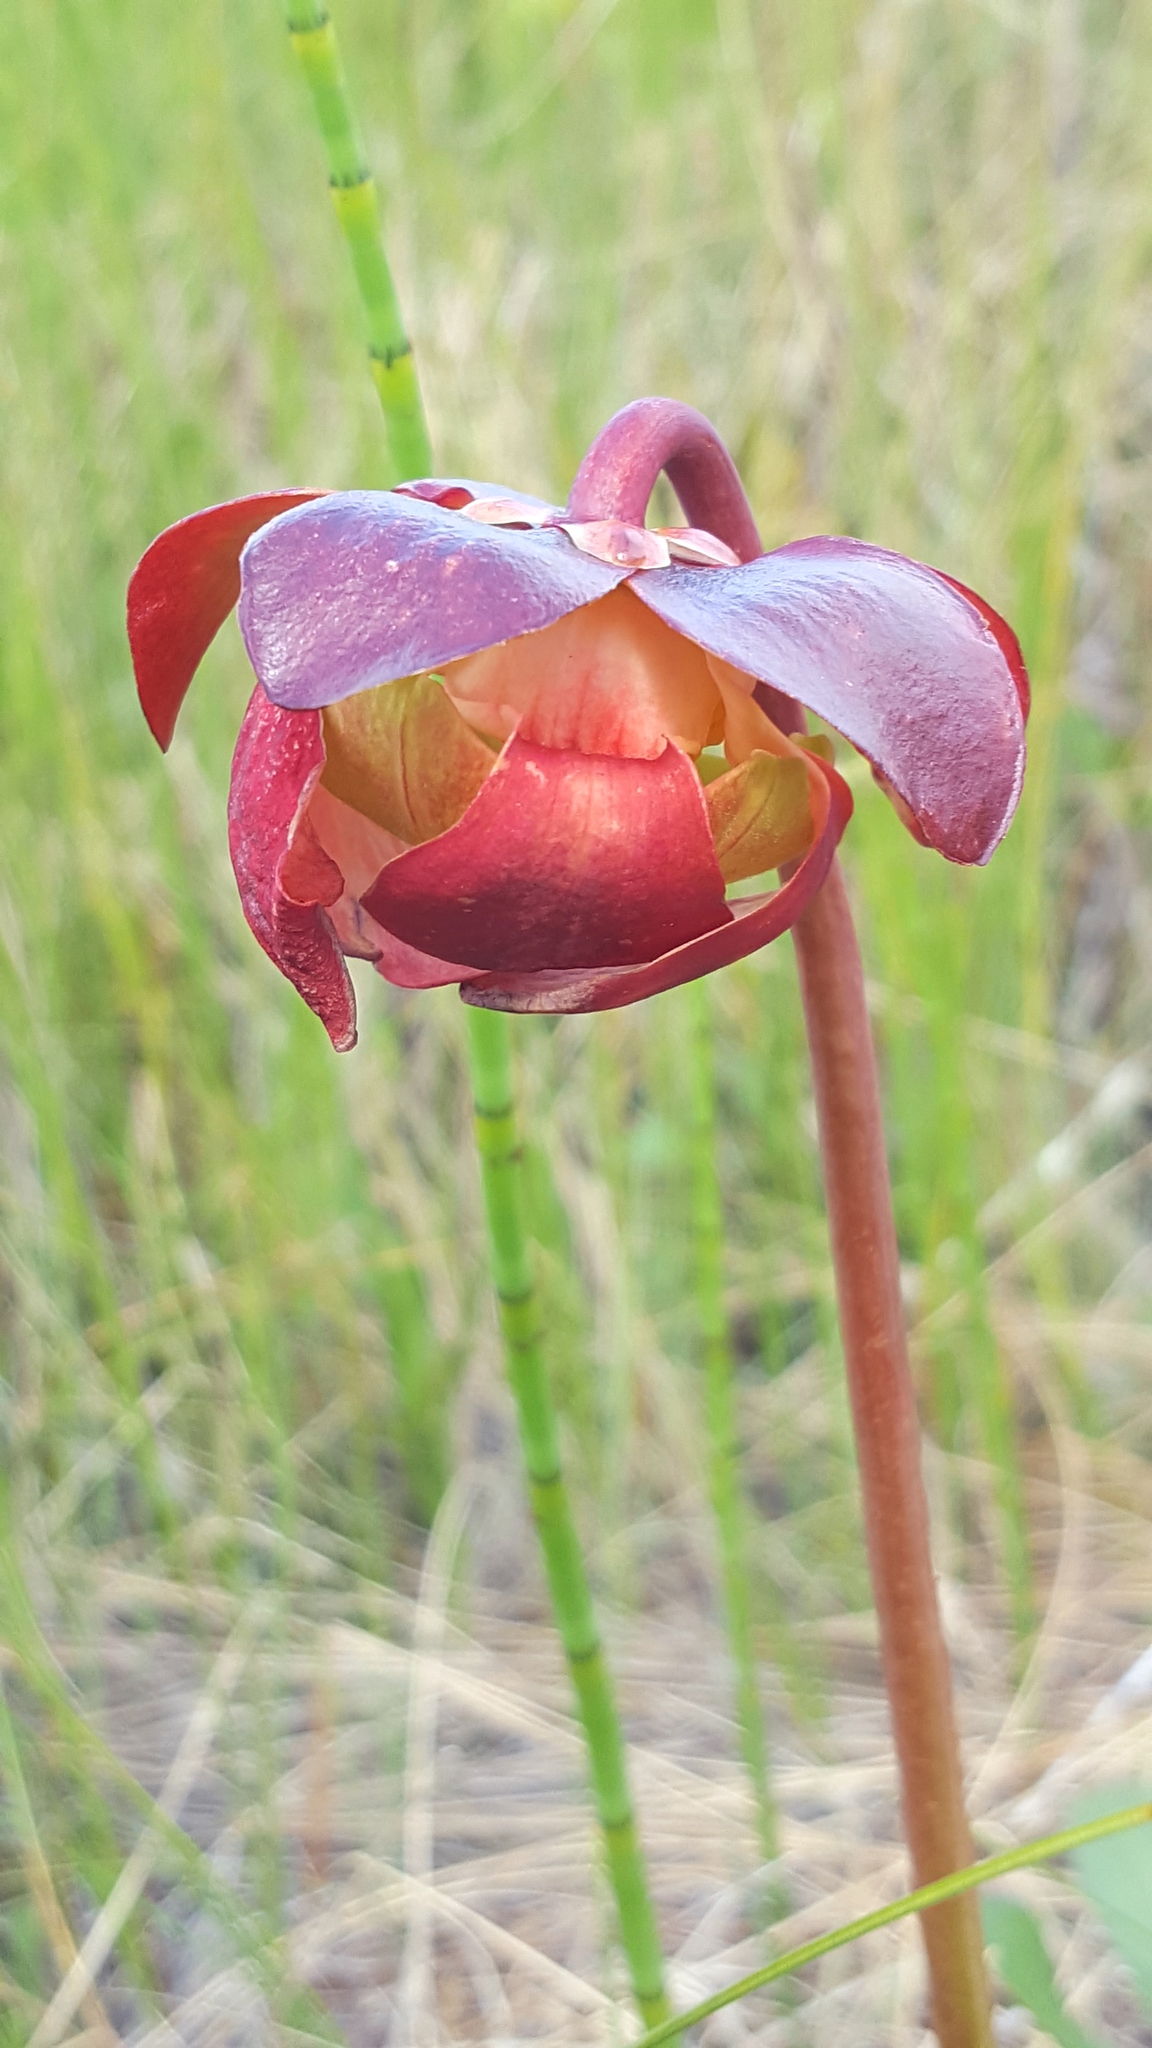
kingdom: Plantae
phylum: Tracheophyta
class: Magnoliopsida
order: Ericales
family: Sarraceniaceae
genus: Sarracenia
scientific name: Sarracenia purpurea
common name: Pitcherplant
